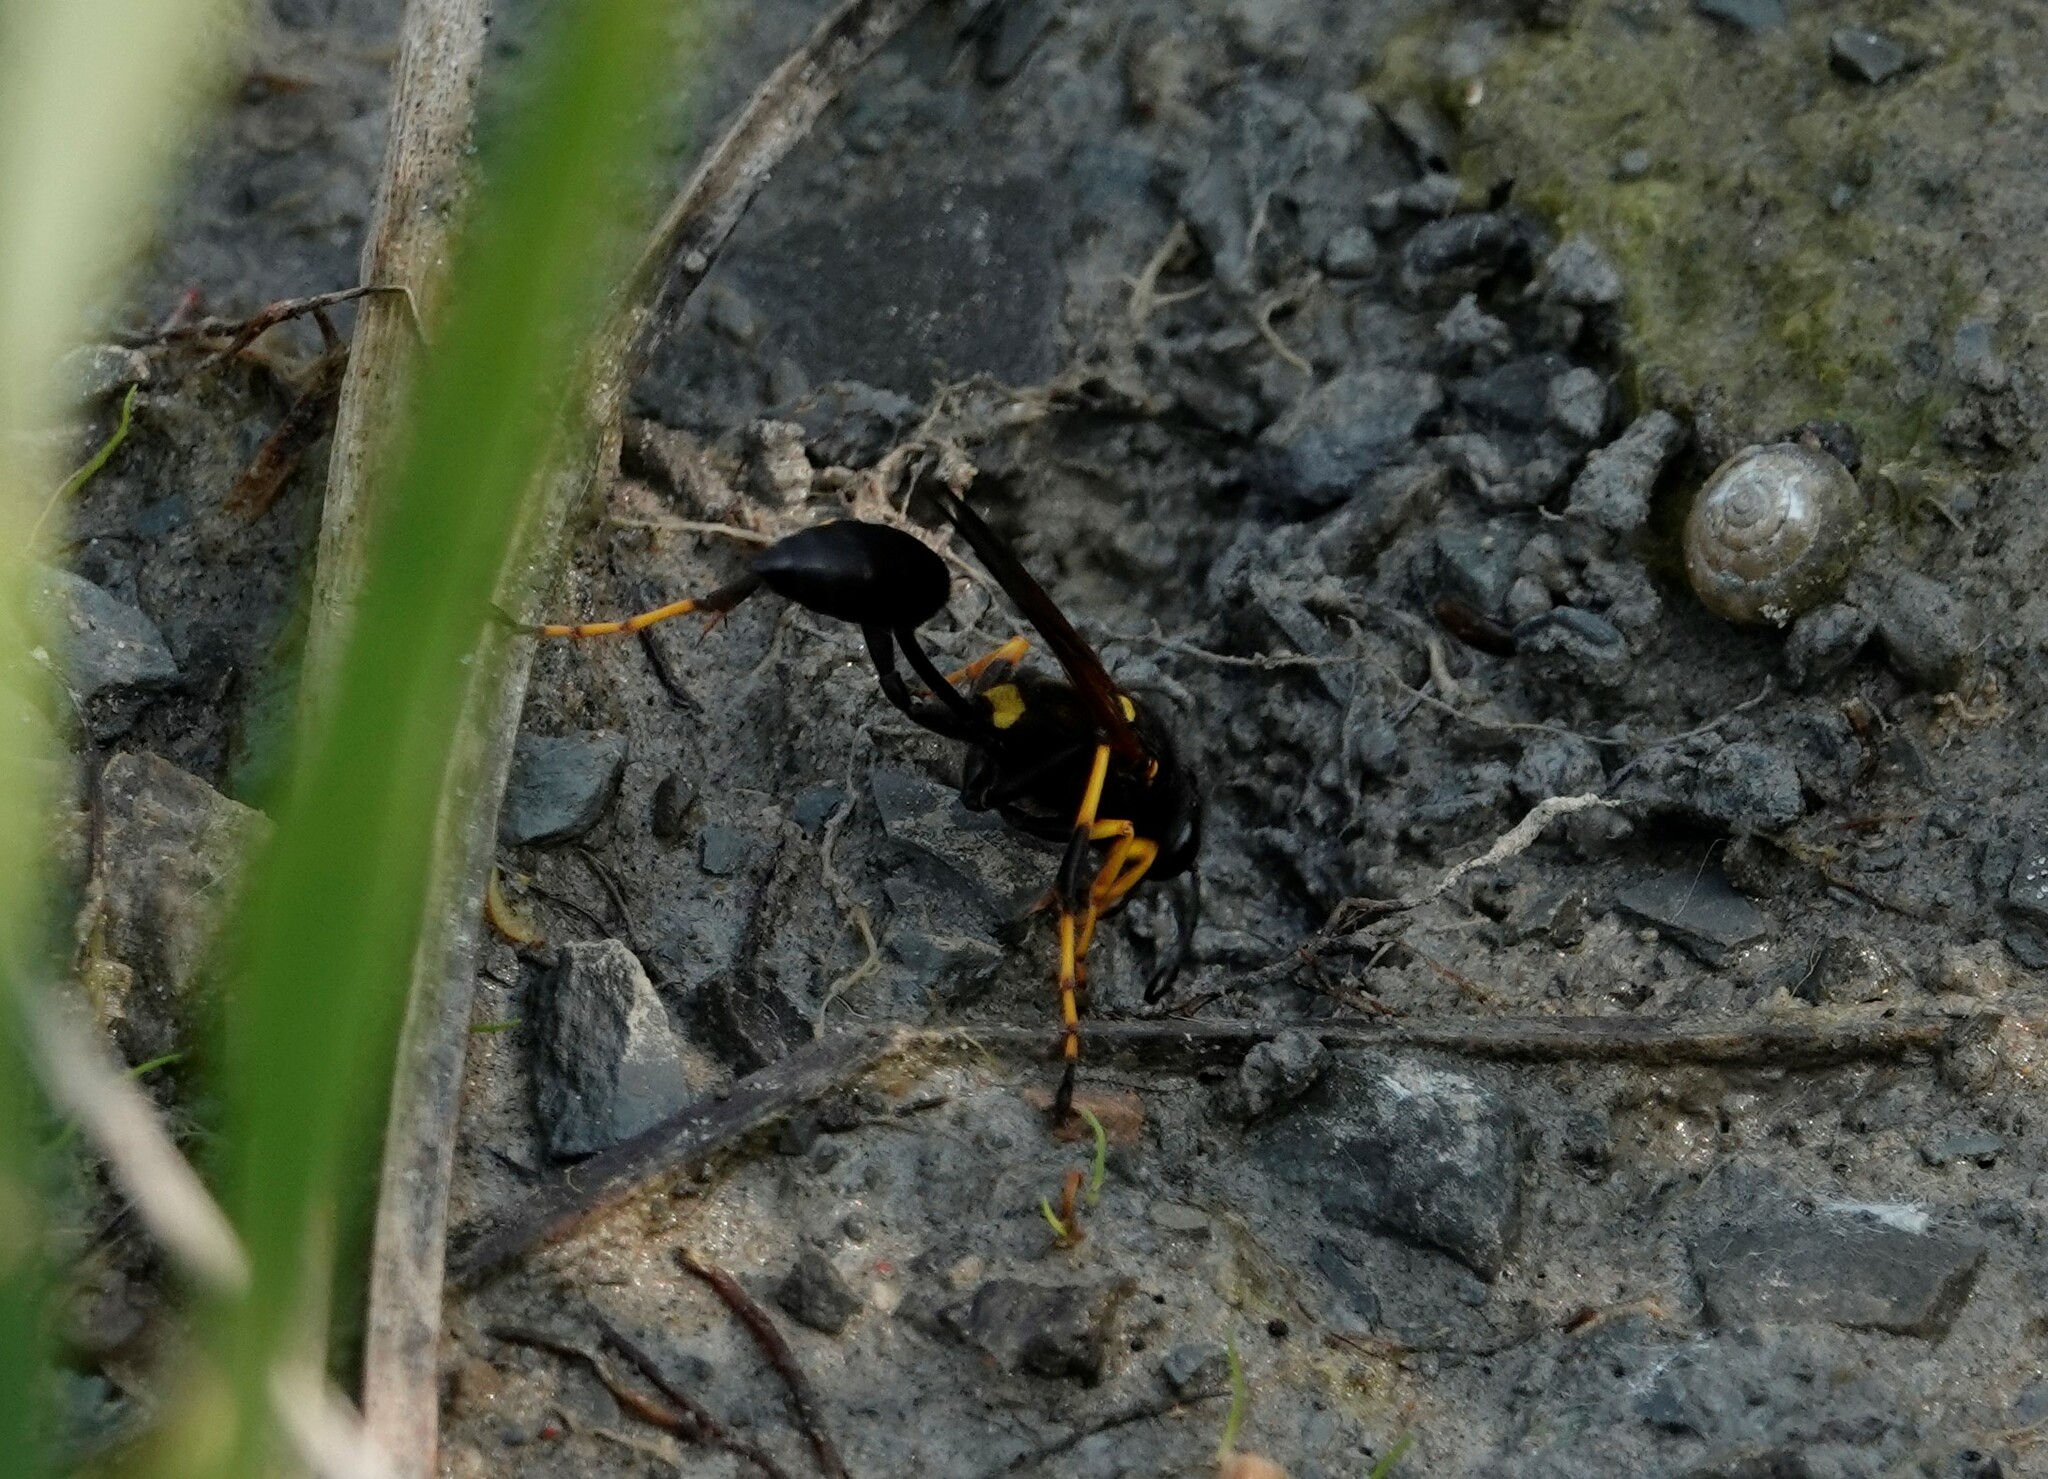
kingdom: Animalia
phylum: Arthropoda
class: Insecta
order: Hymenoptera
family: Sphecidae
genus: Sceliphron
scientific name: Sceliphron caementarium
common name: Mud dauber
